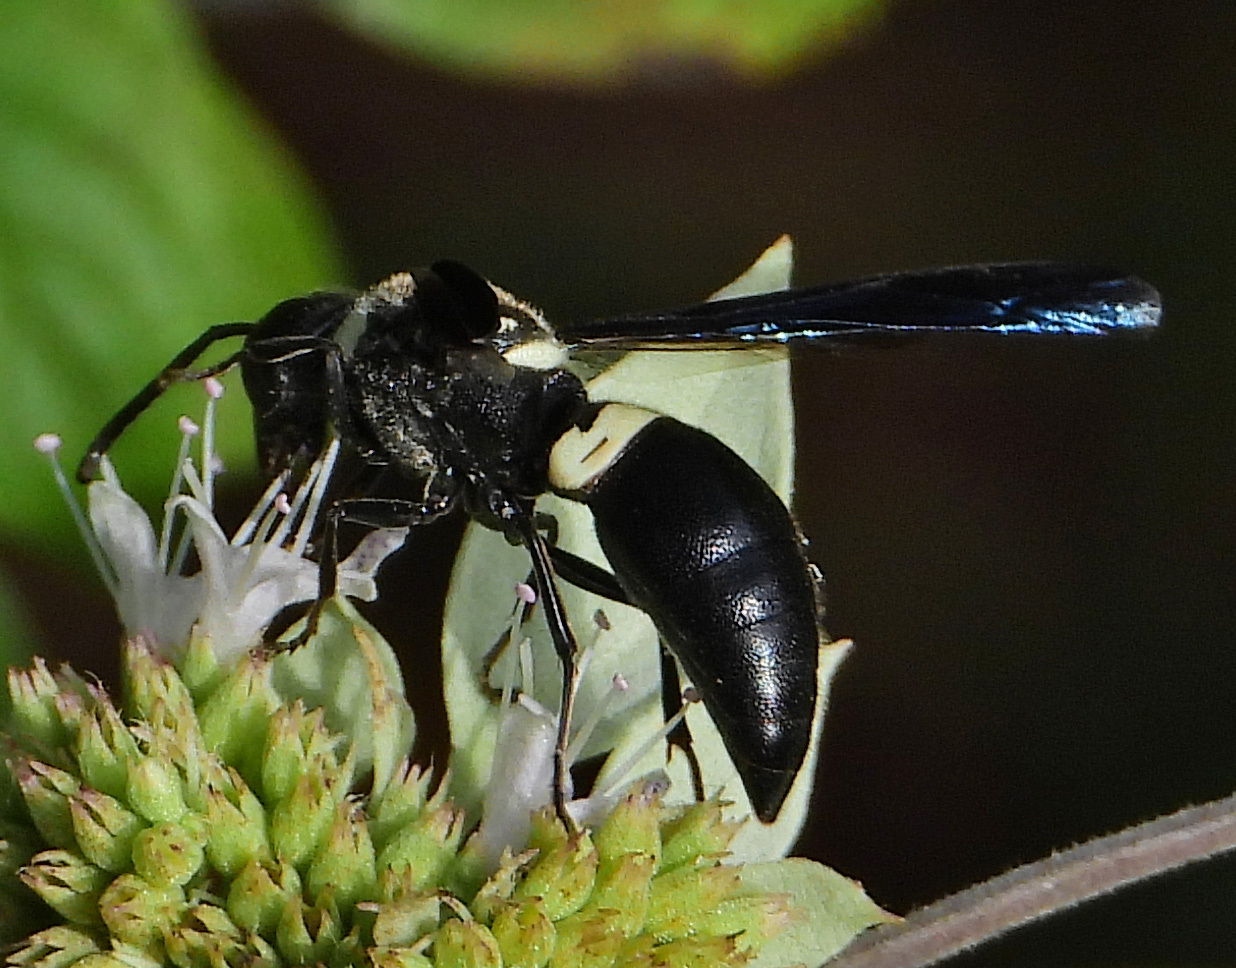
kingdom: Animalia
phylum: Arthropoda
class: Insecta
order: Hymenoptera
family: Eumenidae
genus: Monobia
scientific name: Monobia quadridens
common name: Four-toothed mason wasp
